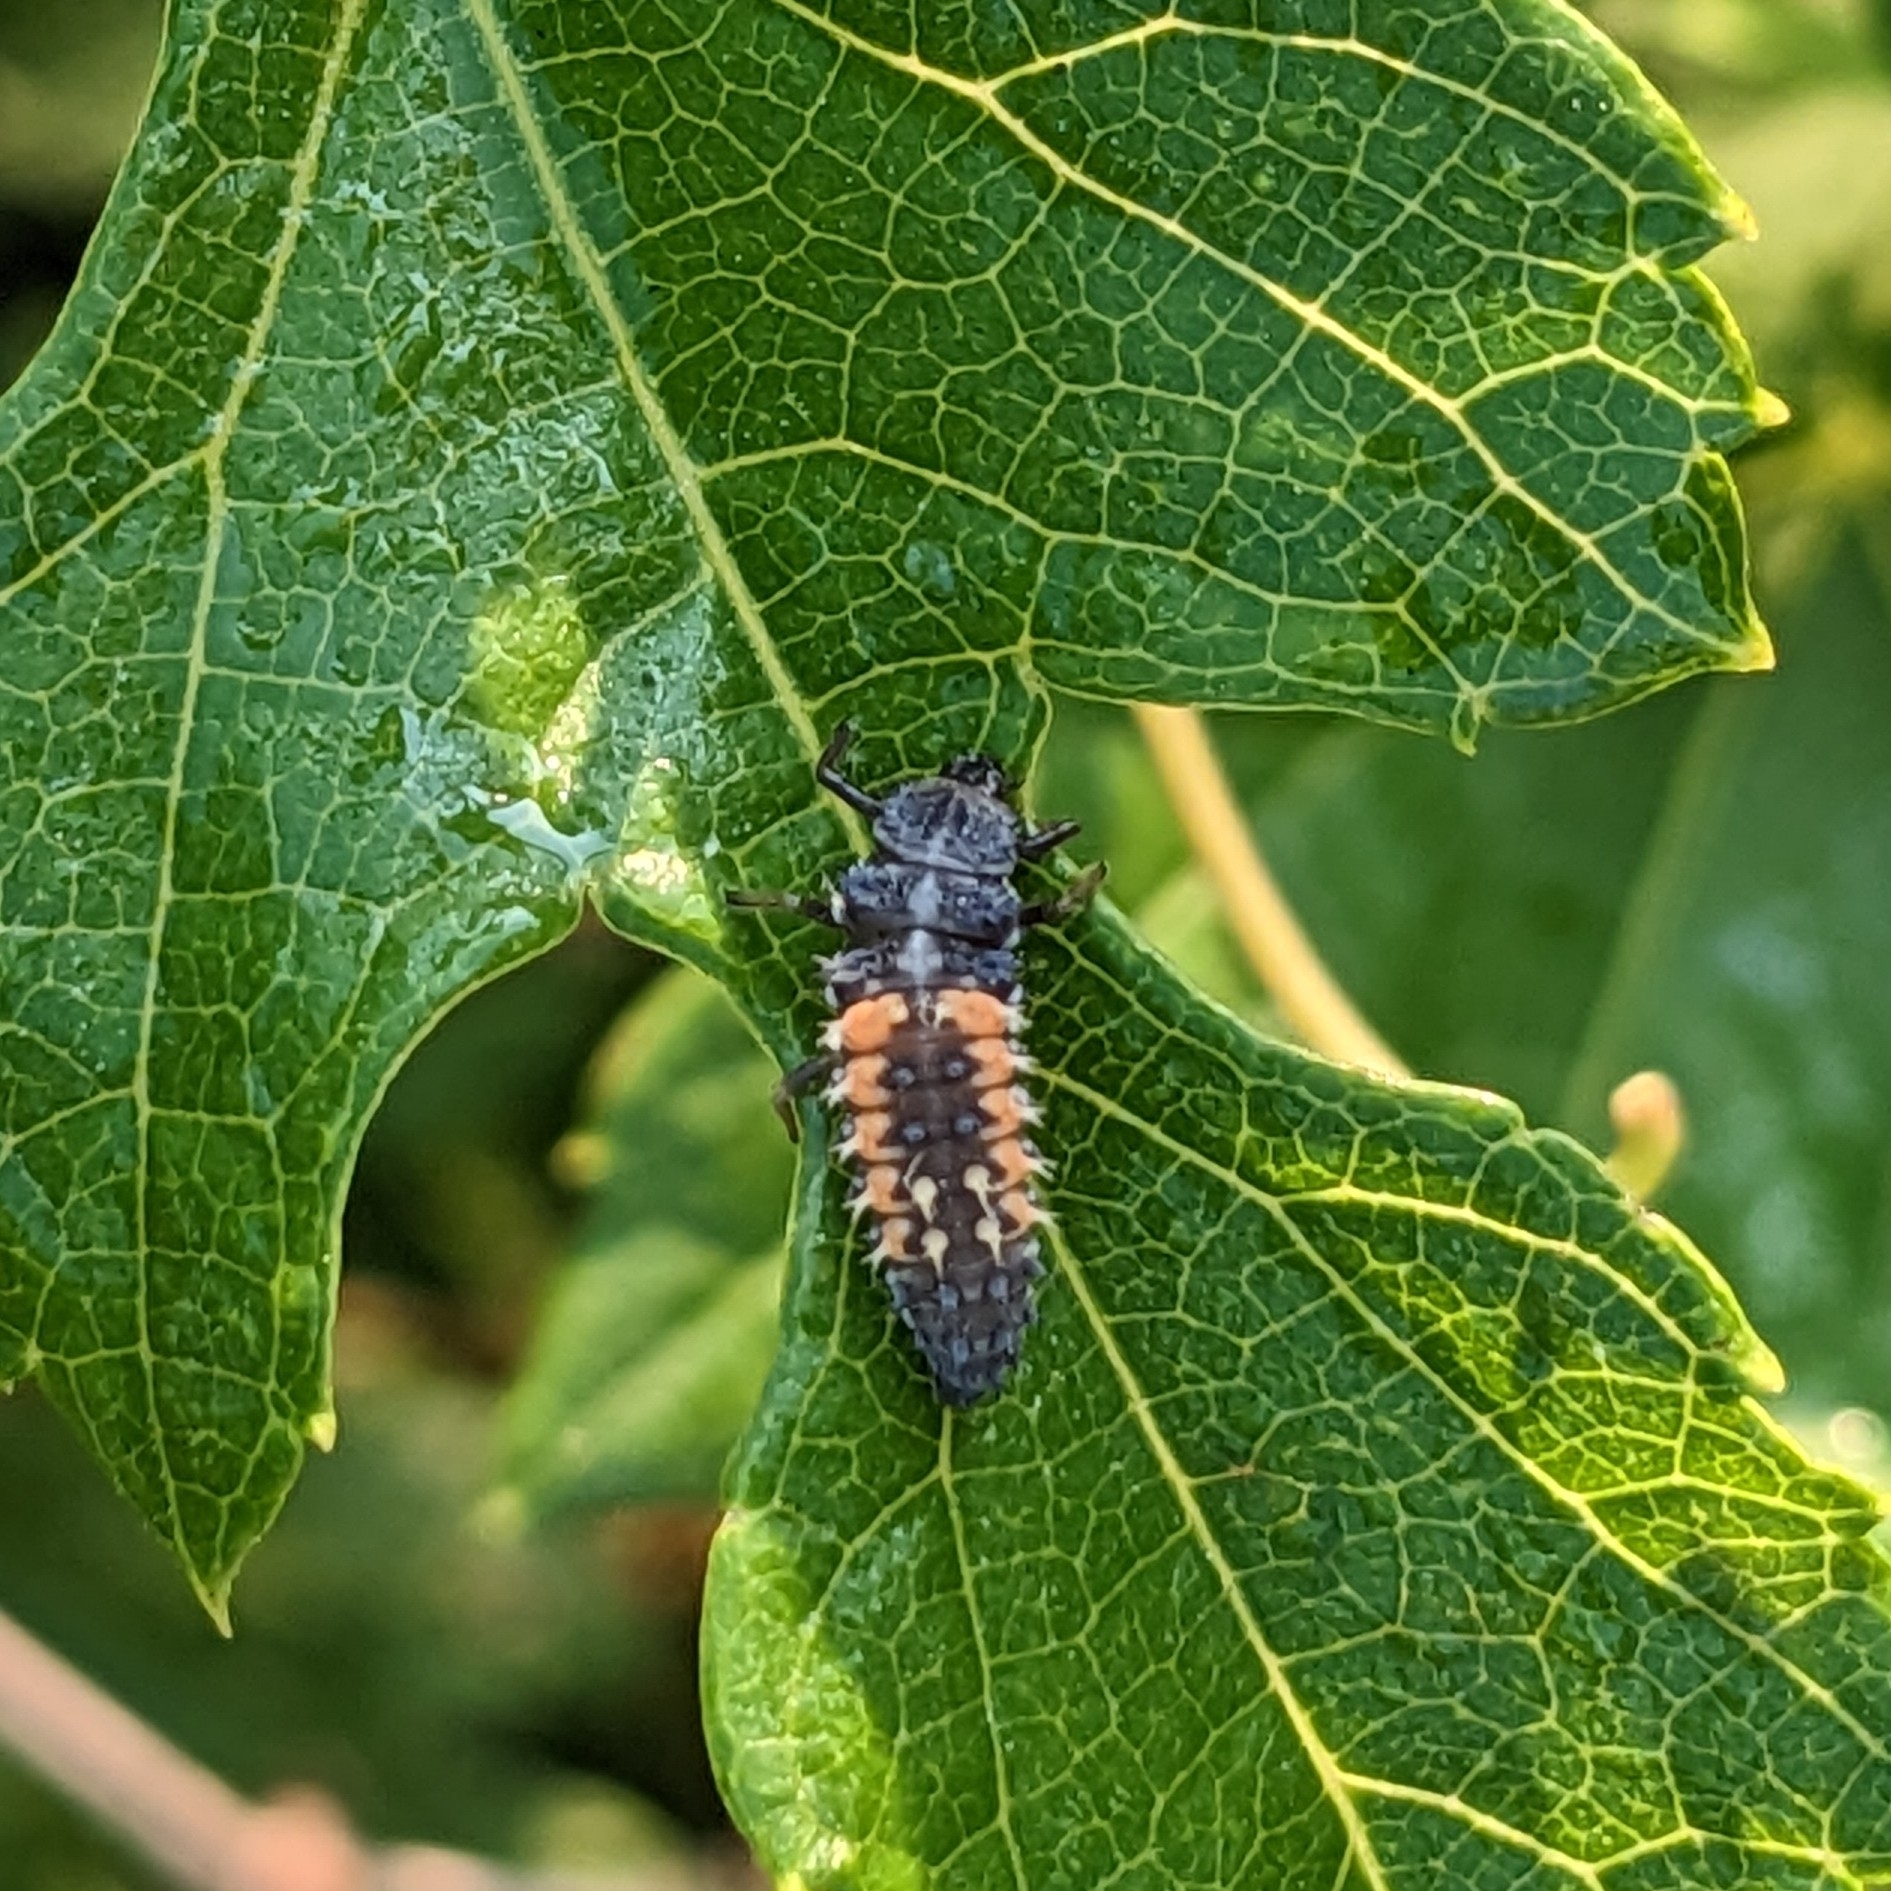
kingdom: Animalia
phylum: Arthropoda
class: Insecta
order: Coleoptera
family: Coccinellidae
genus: Harmonia
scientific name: Harmonia axyridis
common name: Harlequin ladybird
